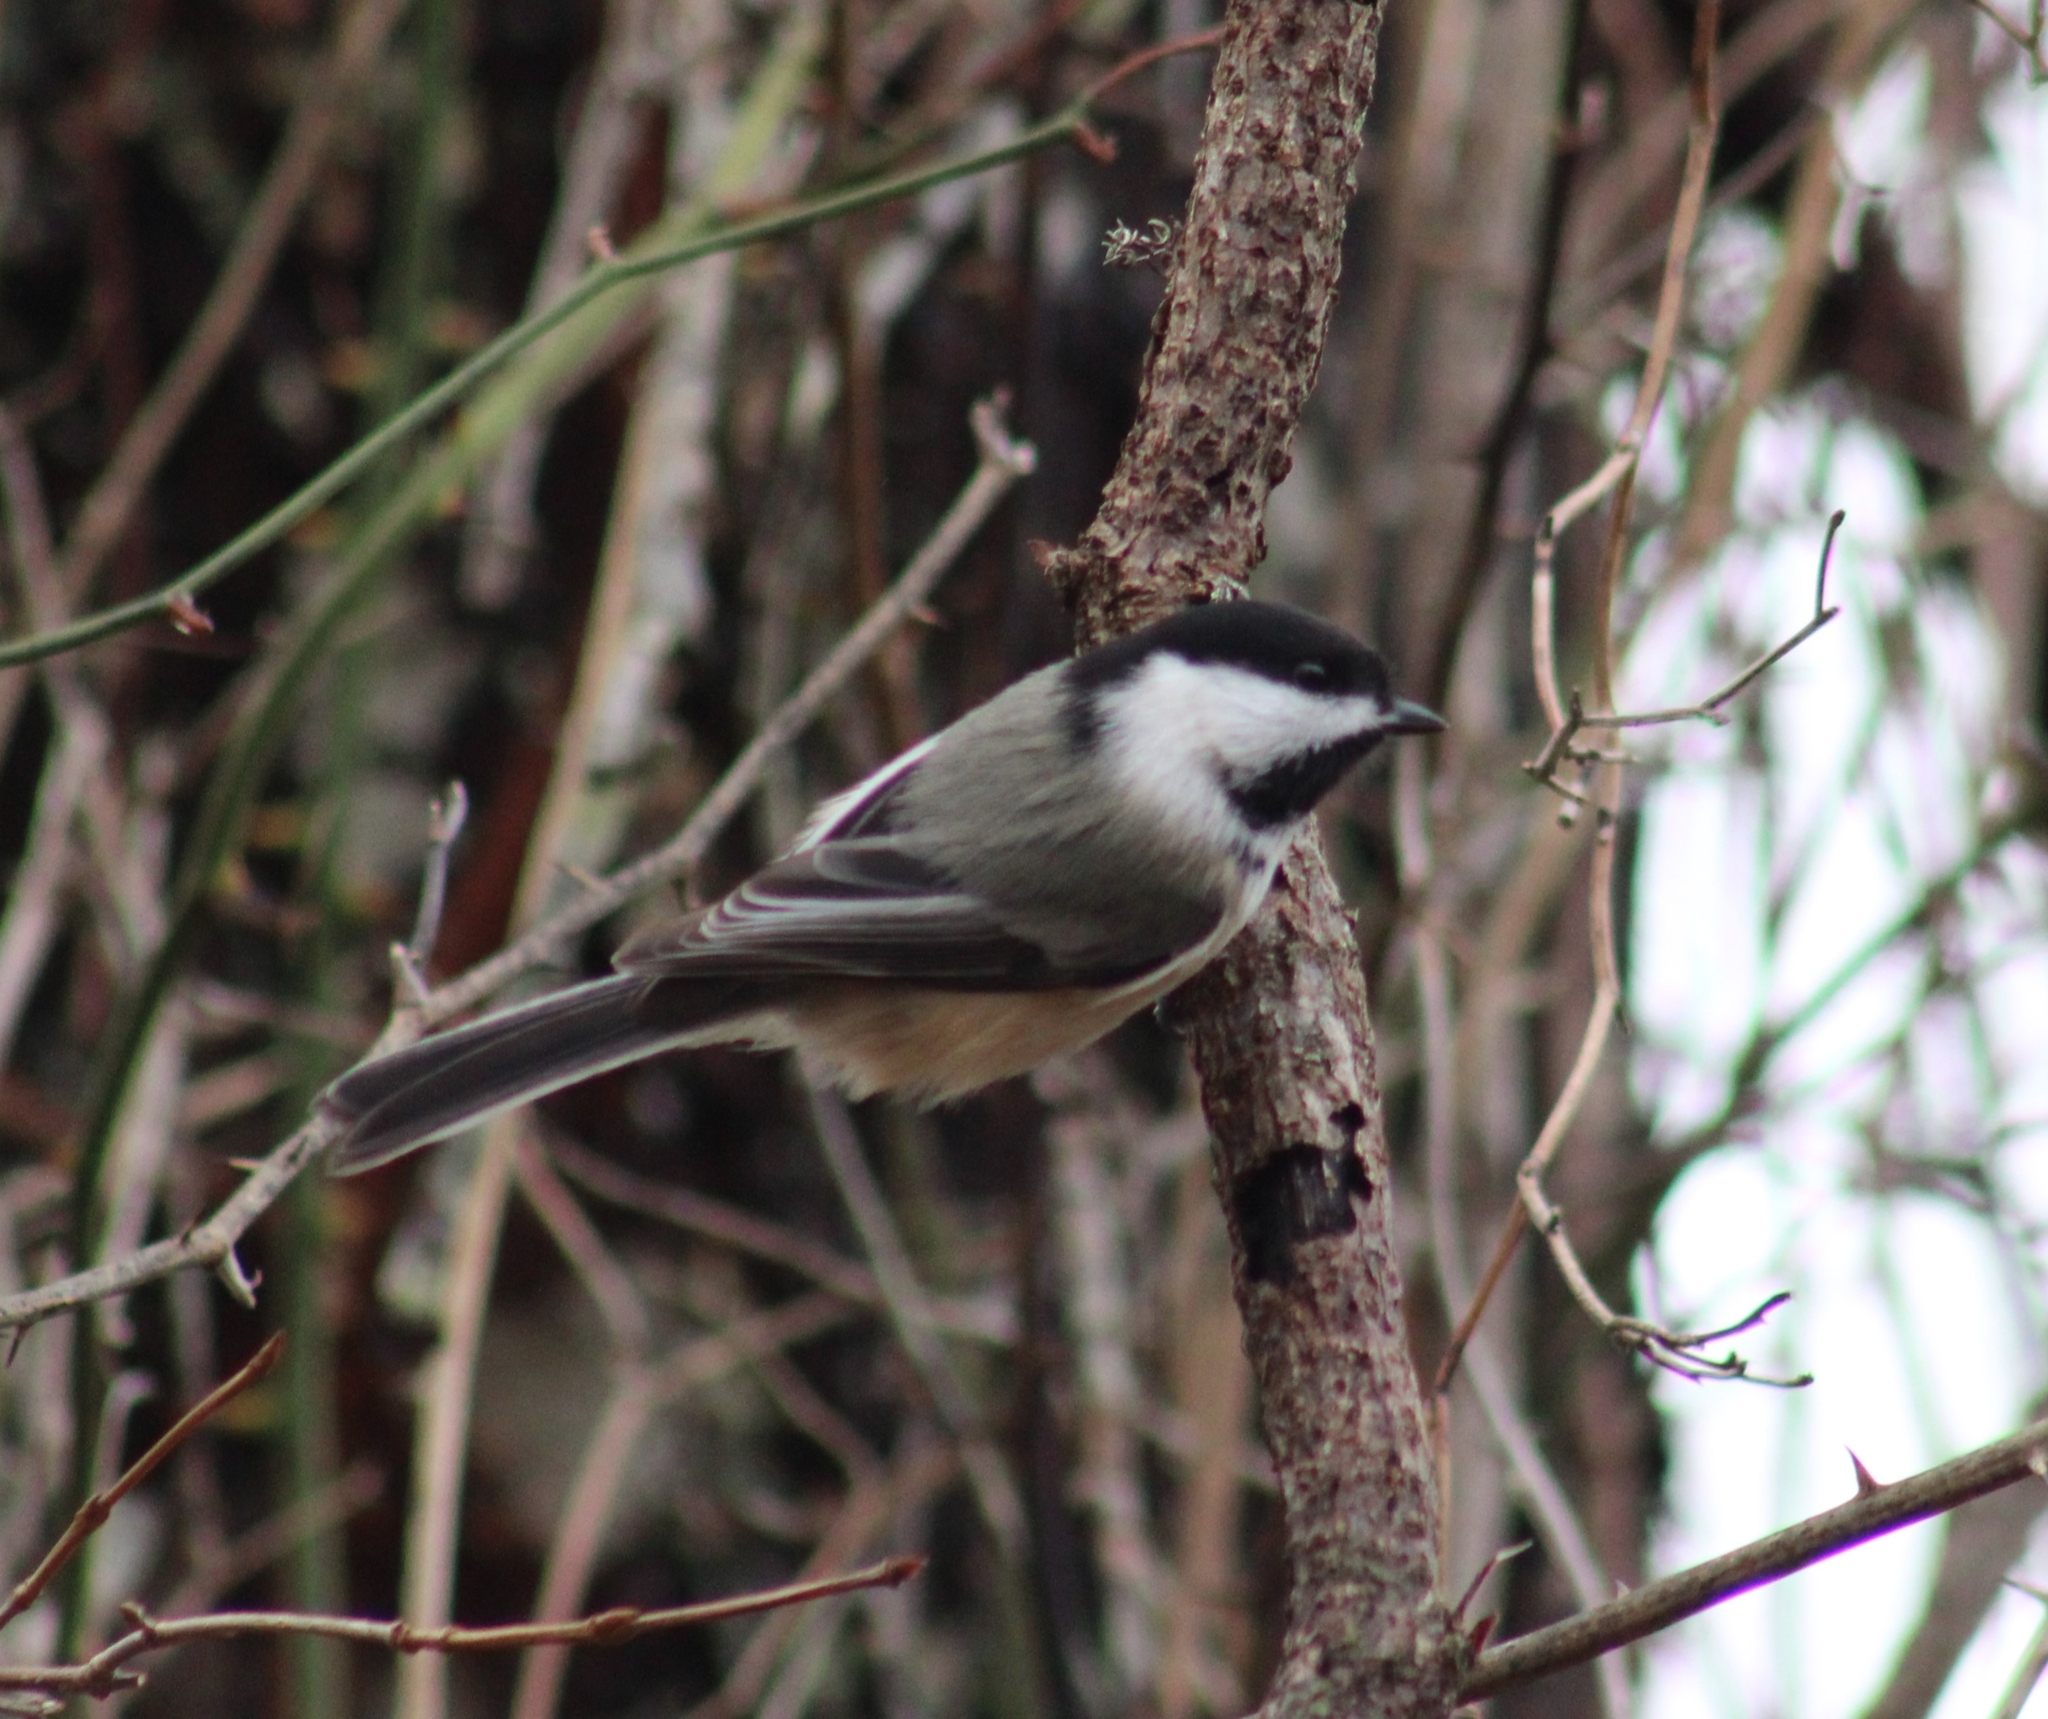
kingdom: Animalia
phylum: Chordata
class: Aves
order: Passeriformes
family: Paridae
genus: Poecile
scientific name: Poecile atricapillus
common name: Black-capped chickadee
